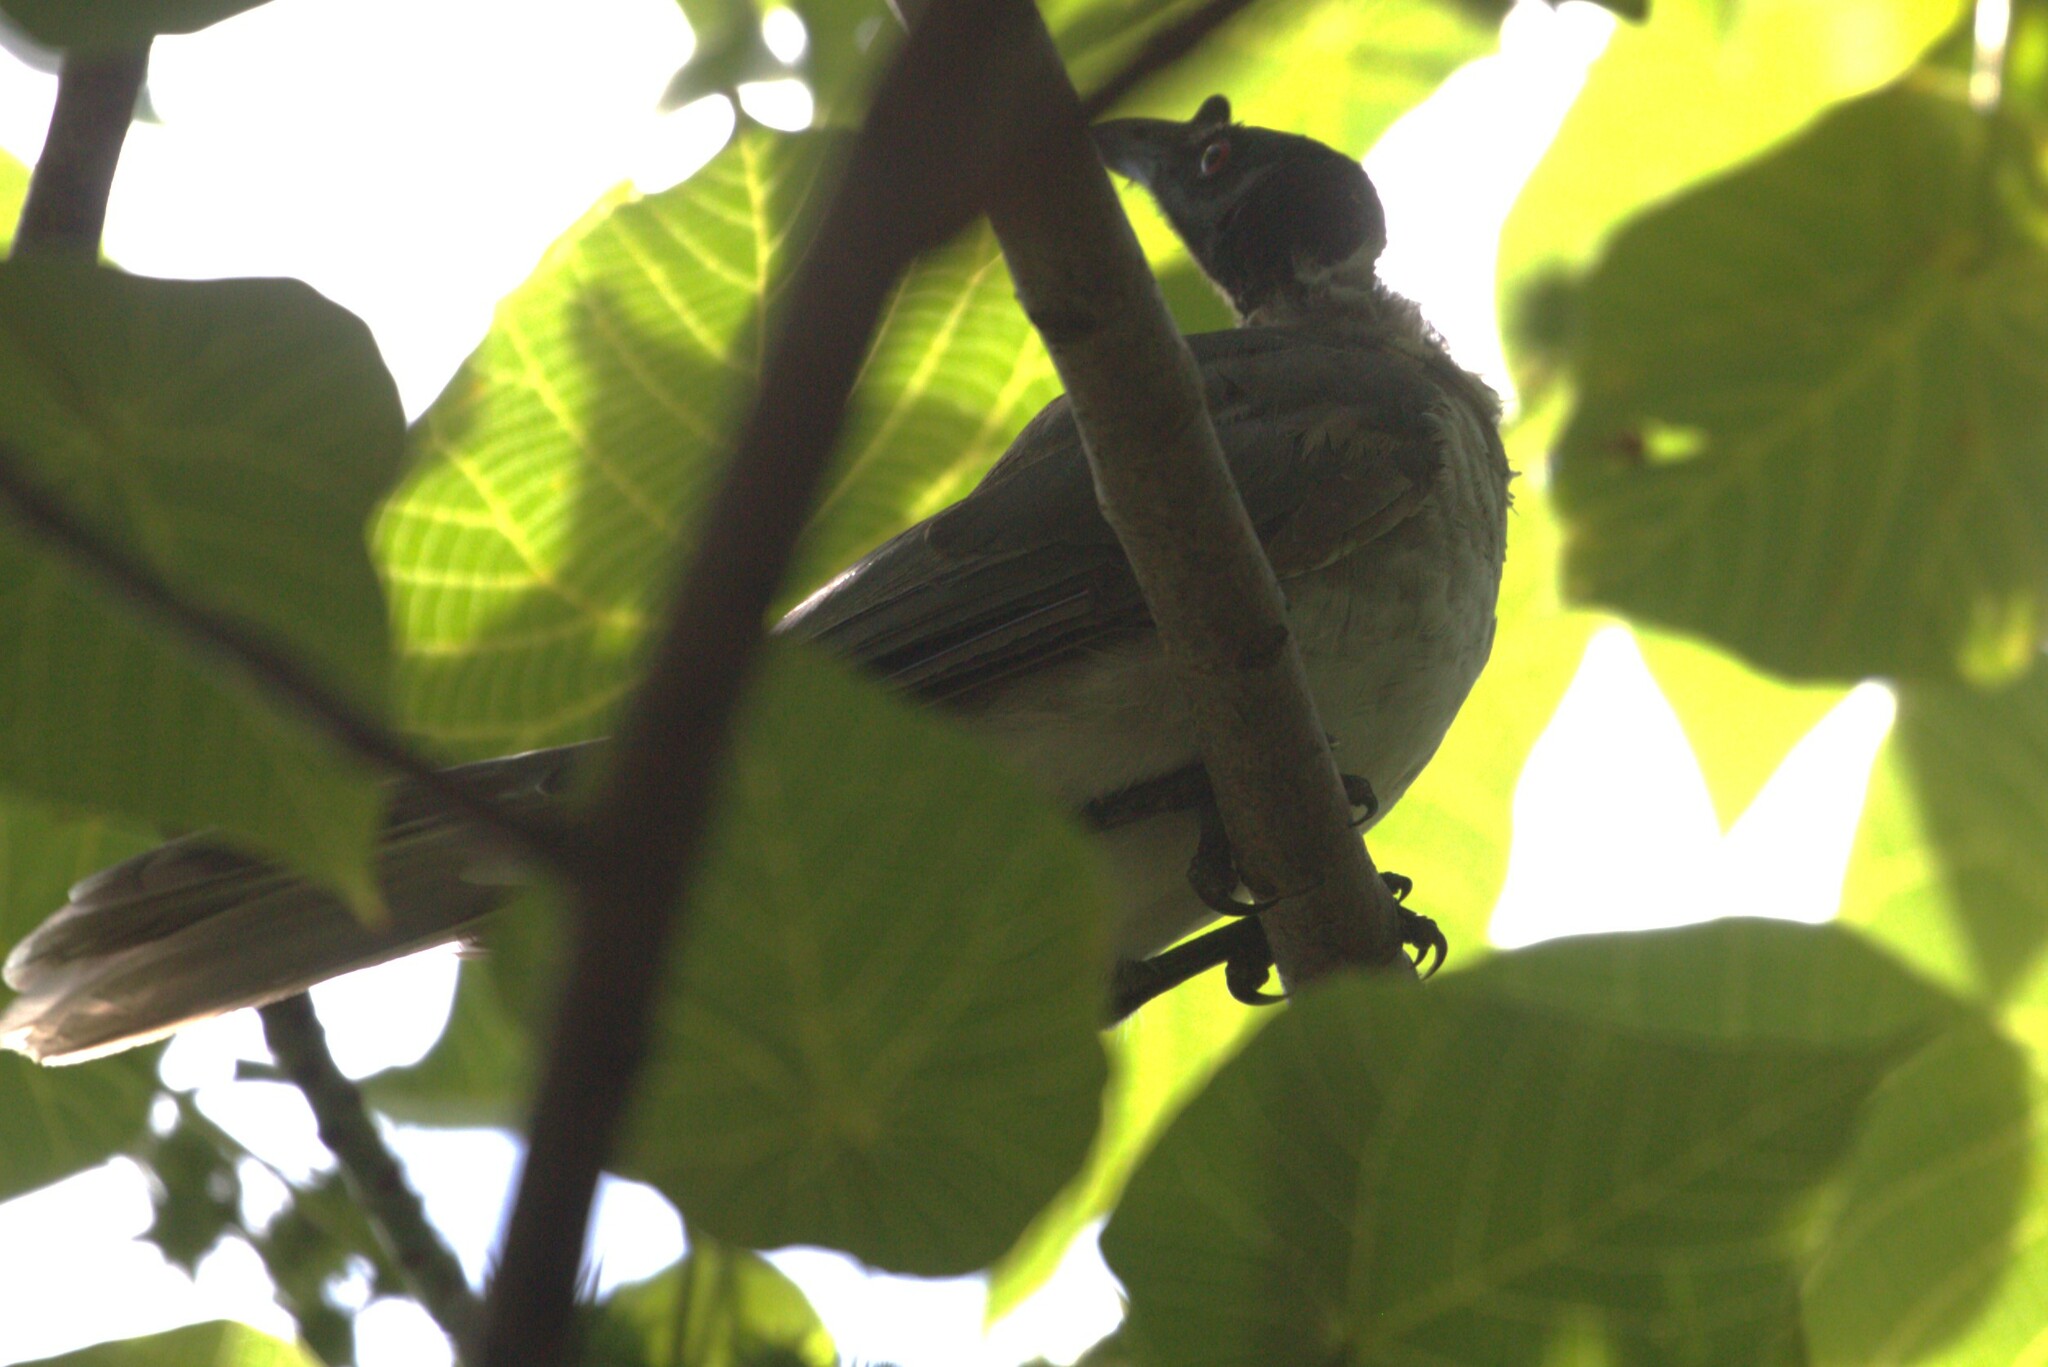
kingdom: Animalia
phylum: Chordata
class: Aves
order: Passeriformes
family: Meliphagidae
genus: Philemon
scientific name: Philemon corniculatus
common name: Noisy friarbird
